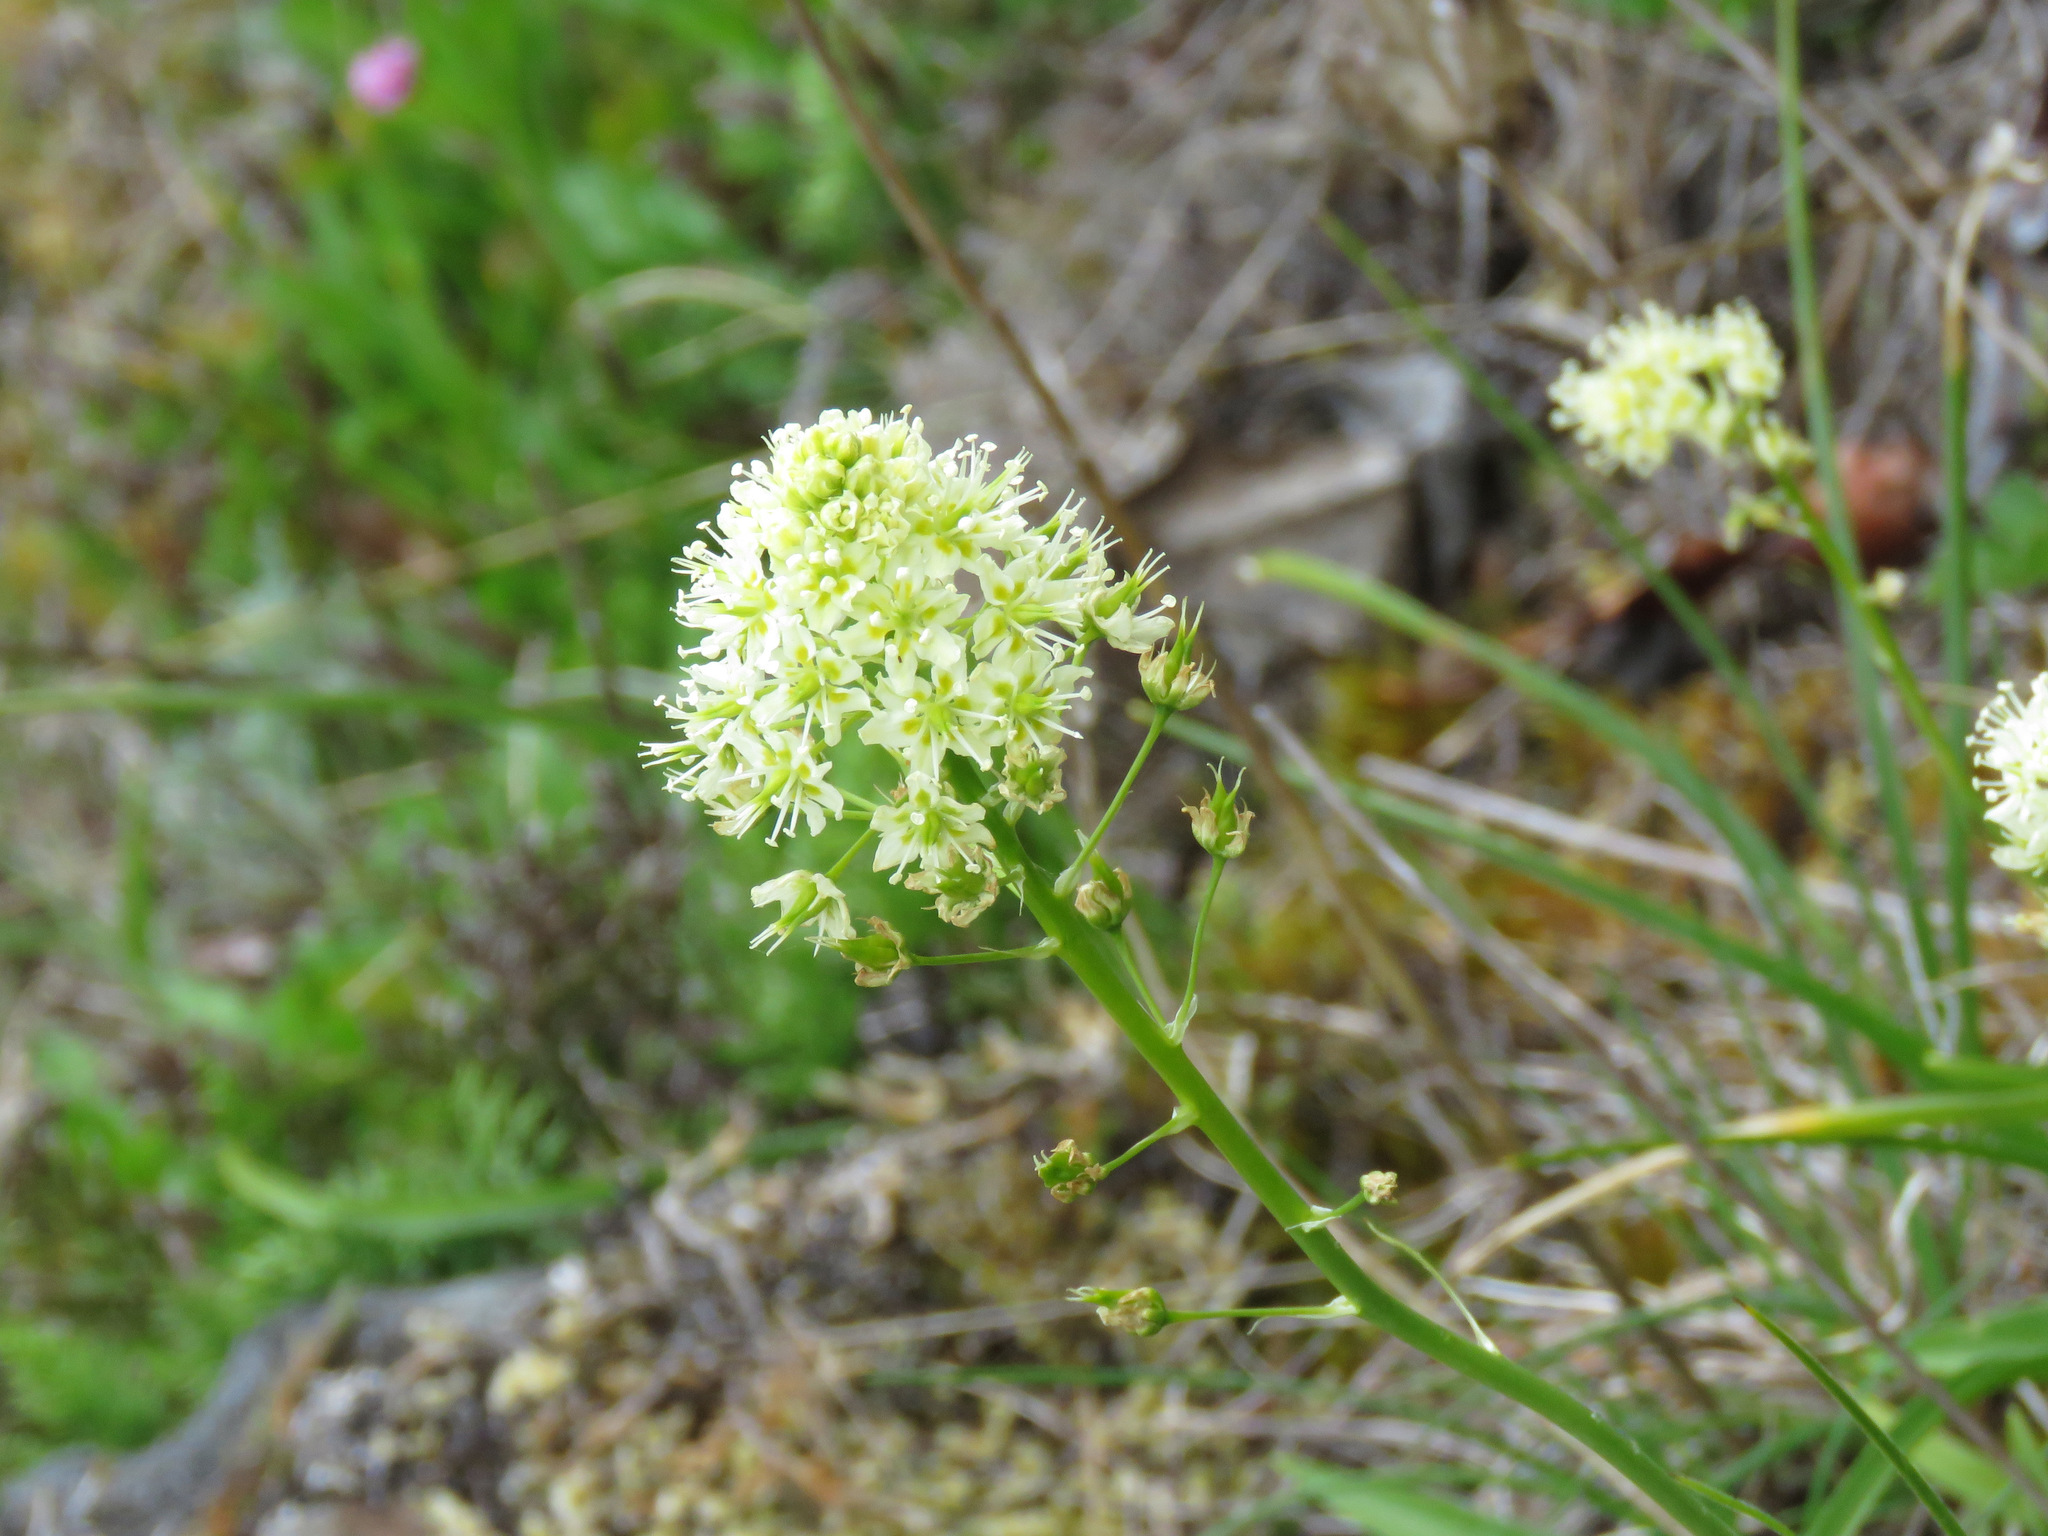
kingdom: Plantae
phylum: Tracheophyta
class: Liliopsida
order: Liliales
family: Melanthiaceae
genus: Toxicoscordion
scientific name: Toxicoscordion venenosum
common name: Meadow death camas
